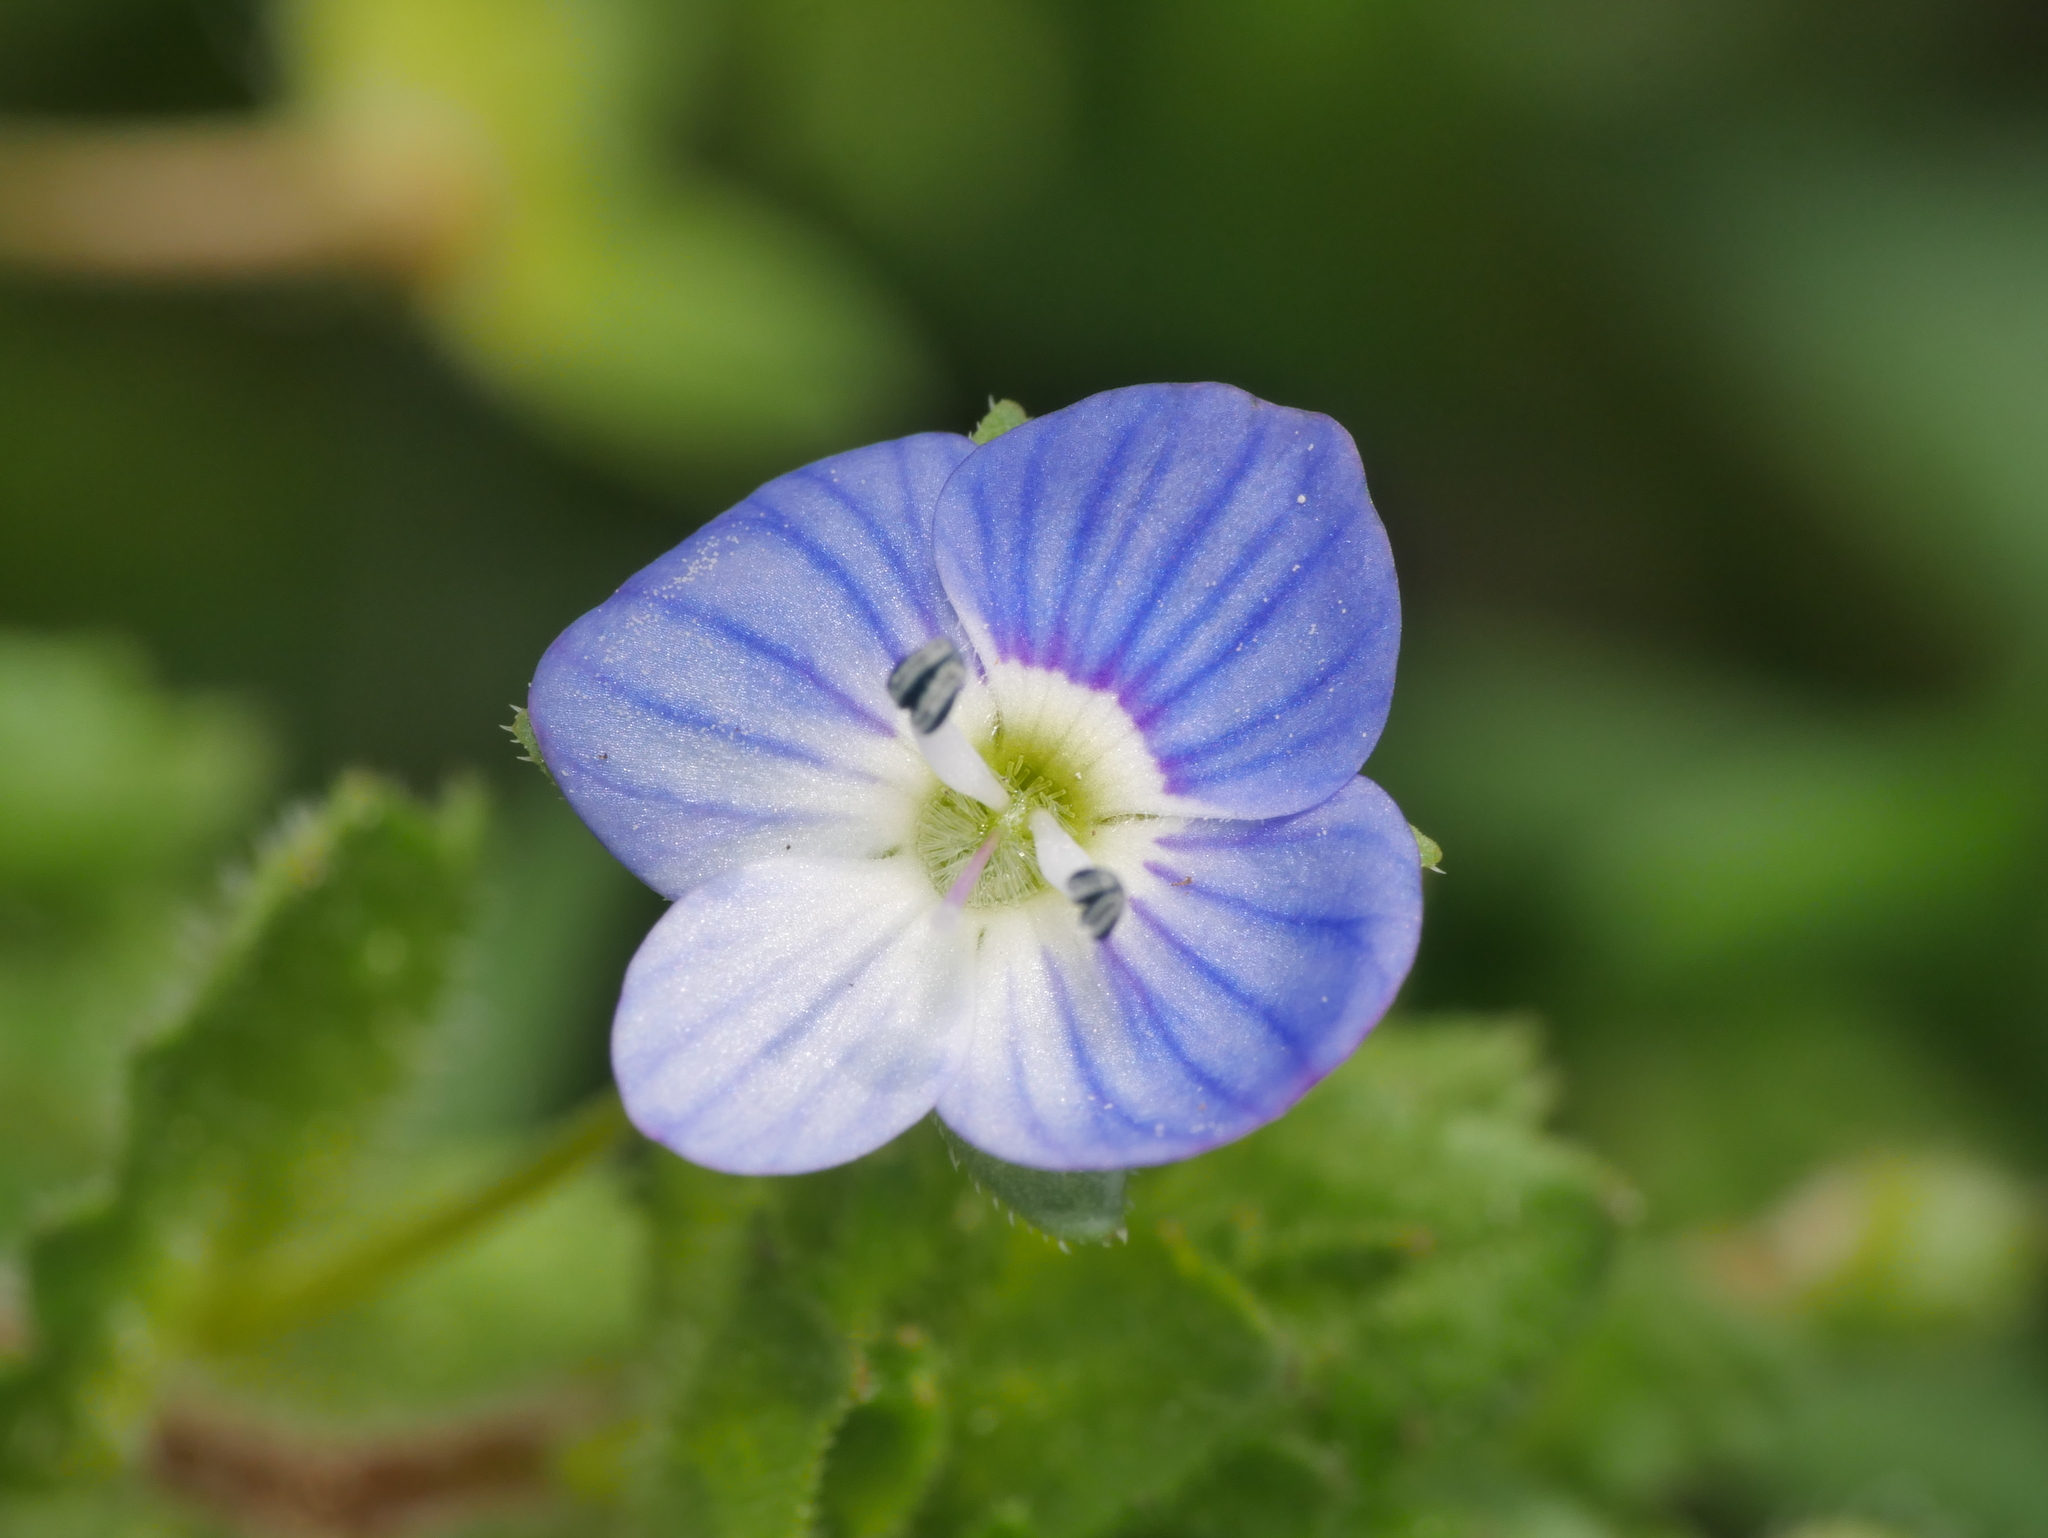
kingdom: Plantae
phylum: Tracheophyta
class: Magnoliopsida
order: Lamiales
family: Plantaginaceae
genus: Veronica
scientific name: Veronica persica
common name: Common field-speedwell
